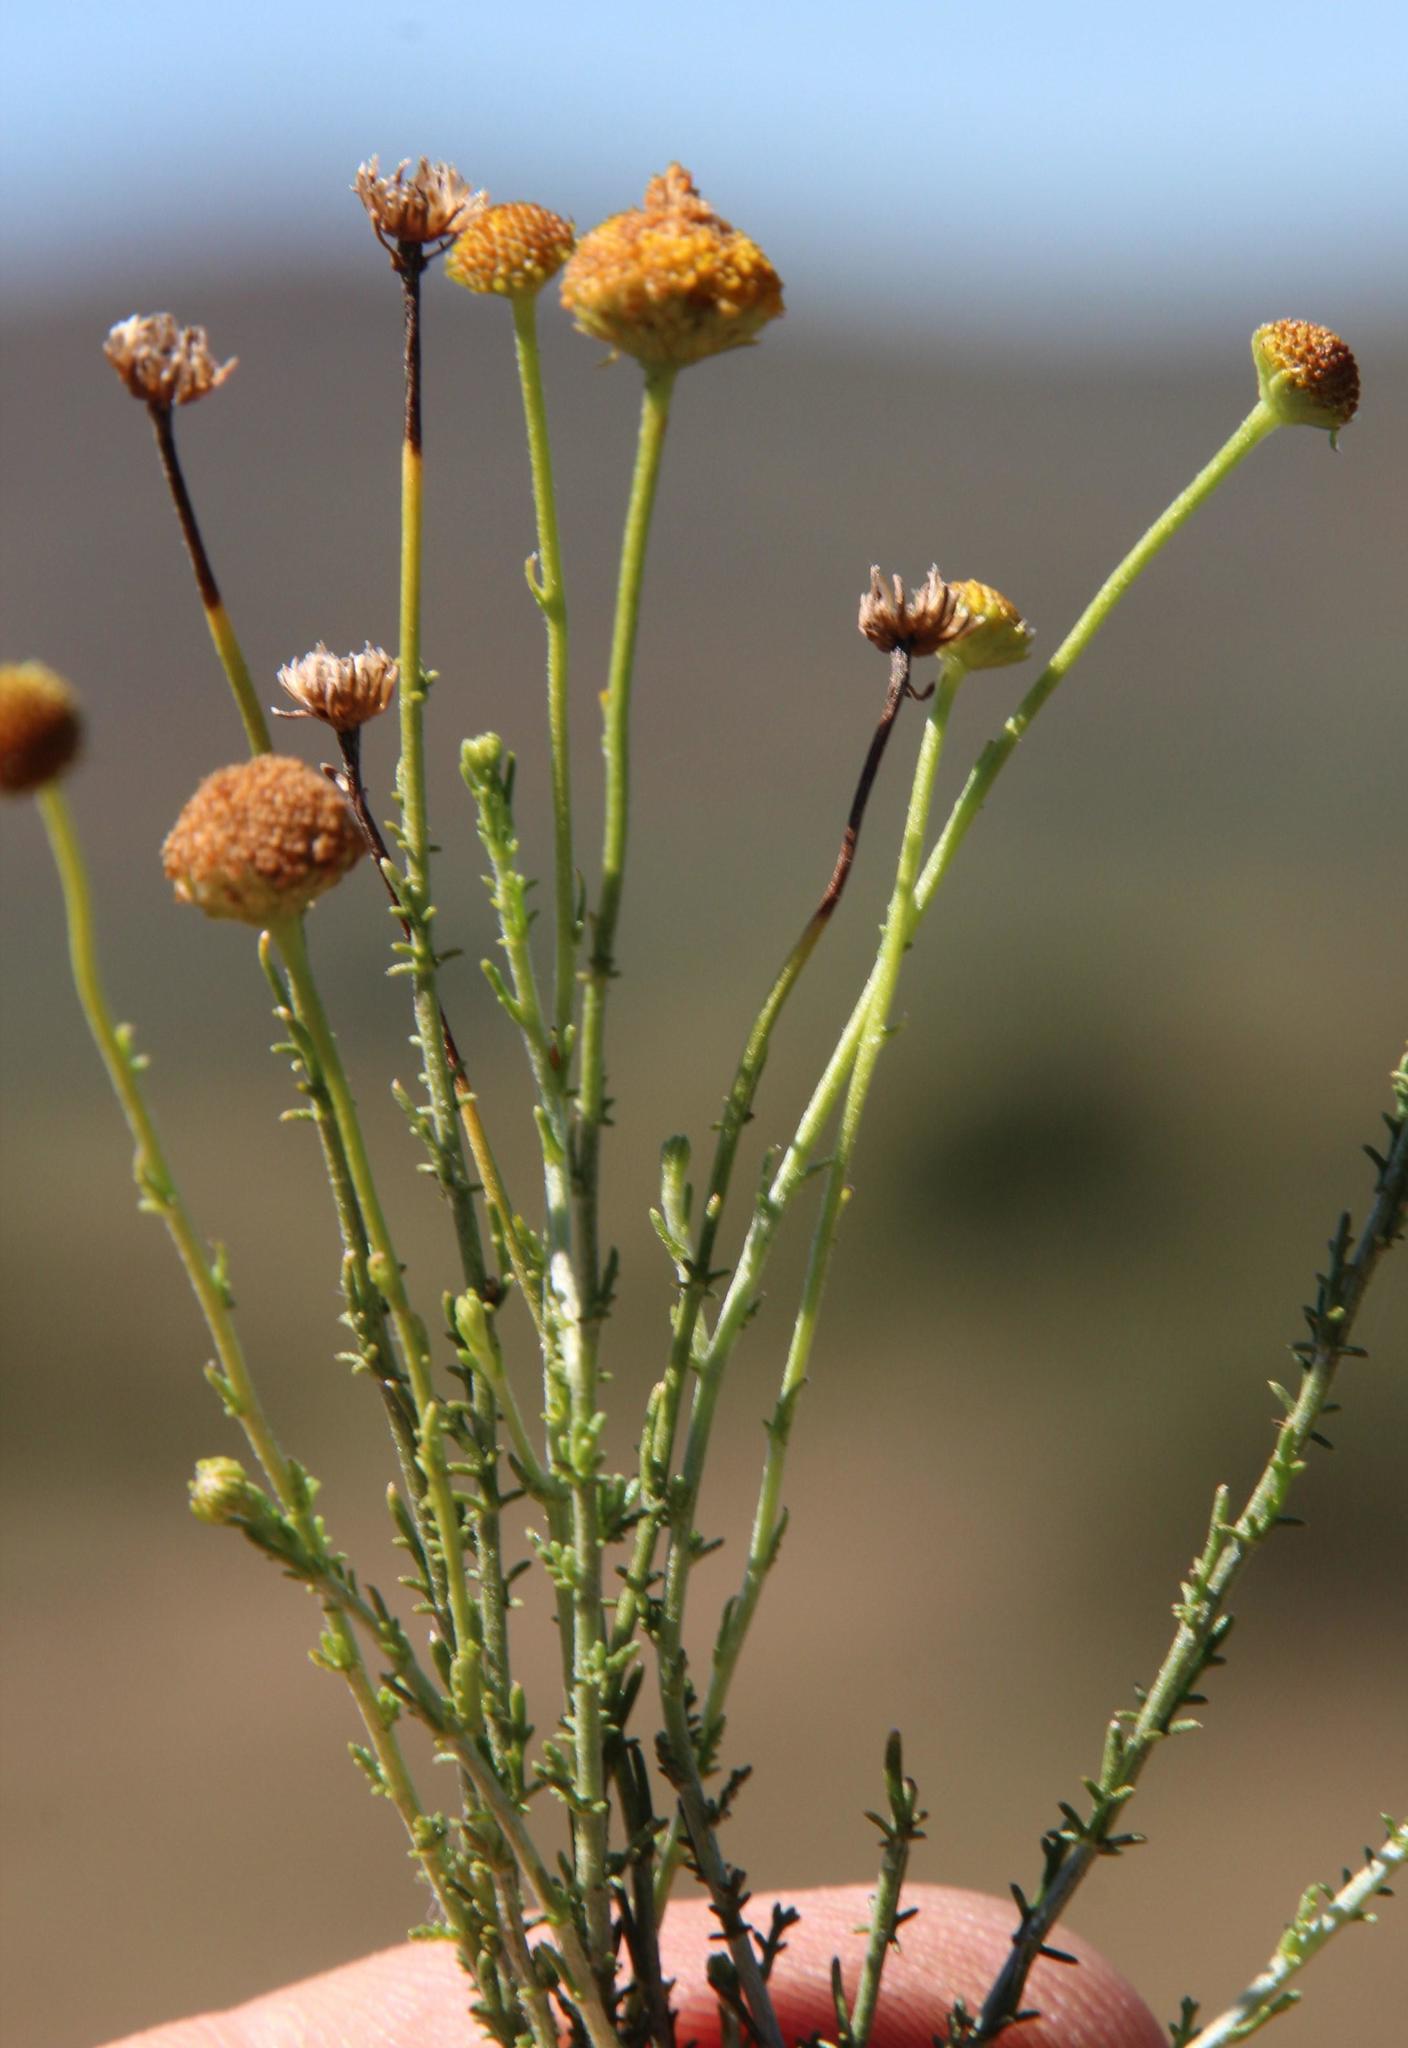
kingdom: Plantae
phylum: Tracheophyta
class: Magnoliopsida
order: Asterales
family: Asteraceae
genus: Phymaspermum
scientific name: Phymaspermum parvifolium
